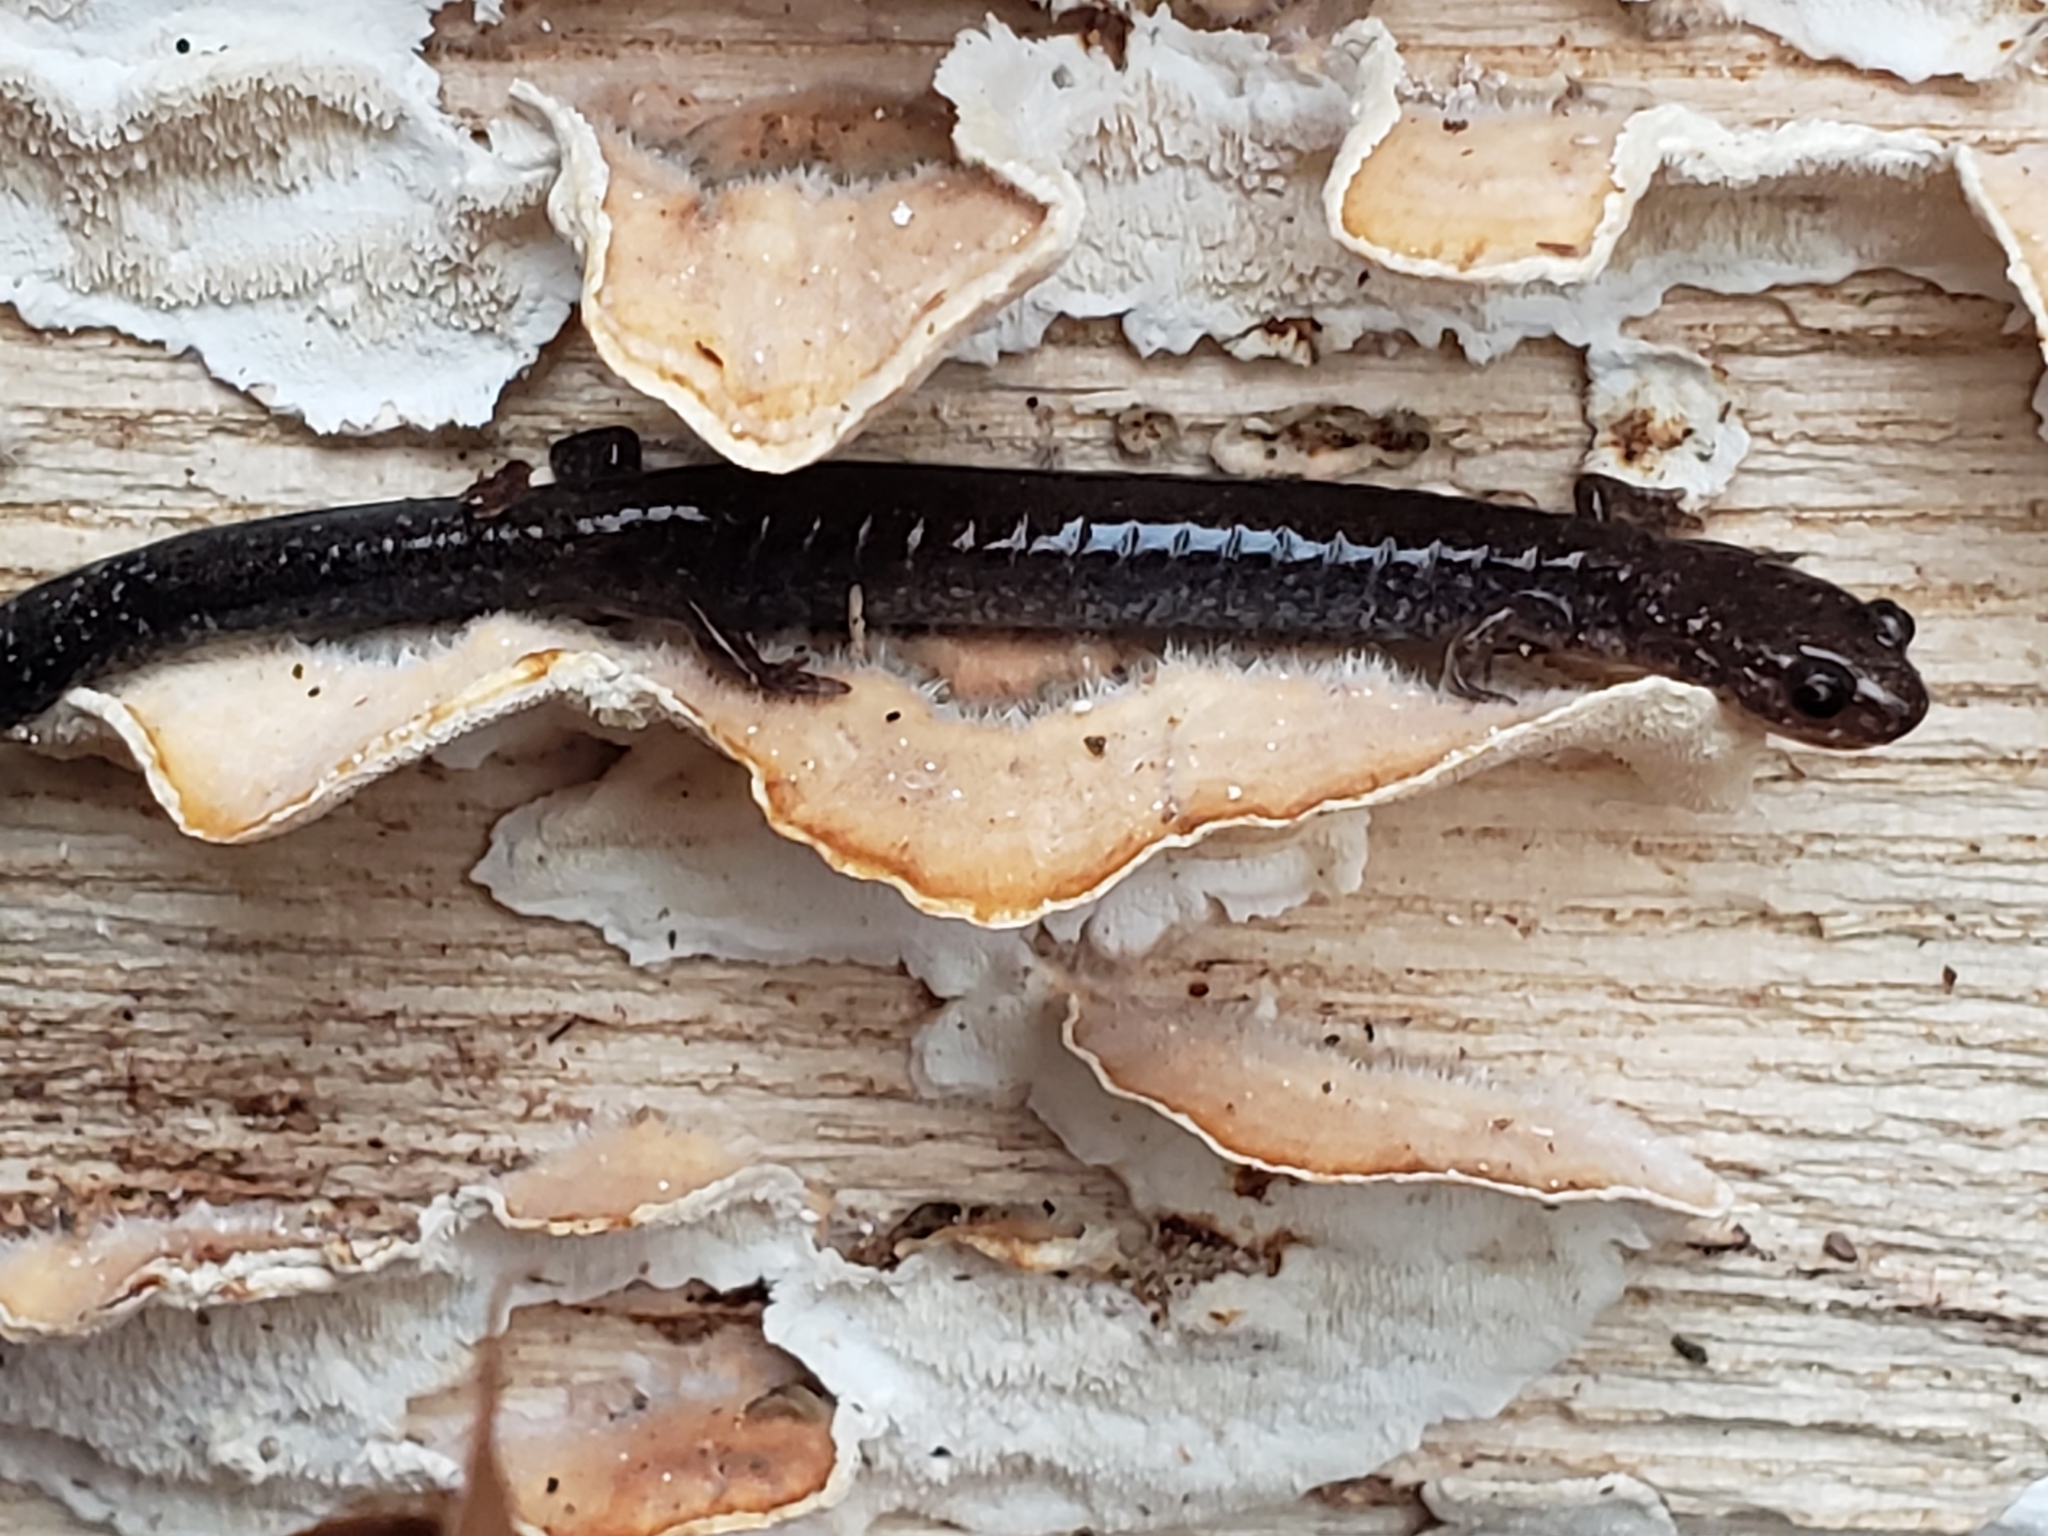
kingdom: Animalia
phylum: Chordata
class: Amphibia
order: Caudata
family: Plethodontidae
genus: Plethodon
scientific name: Plethodon cinereus
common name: Redback salamander
